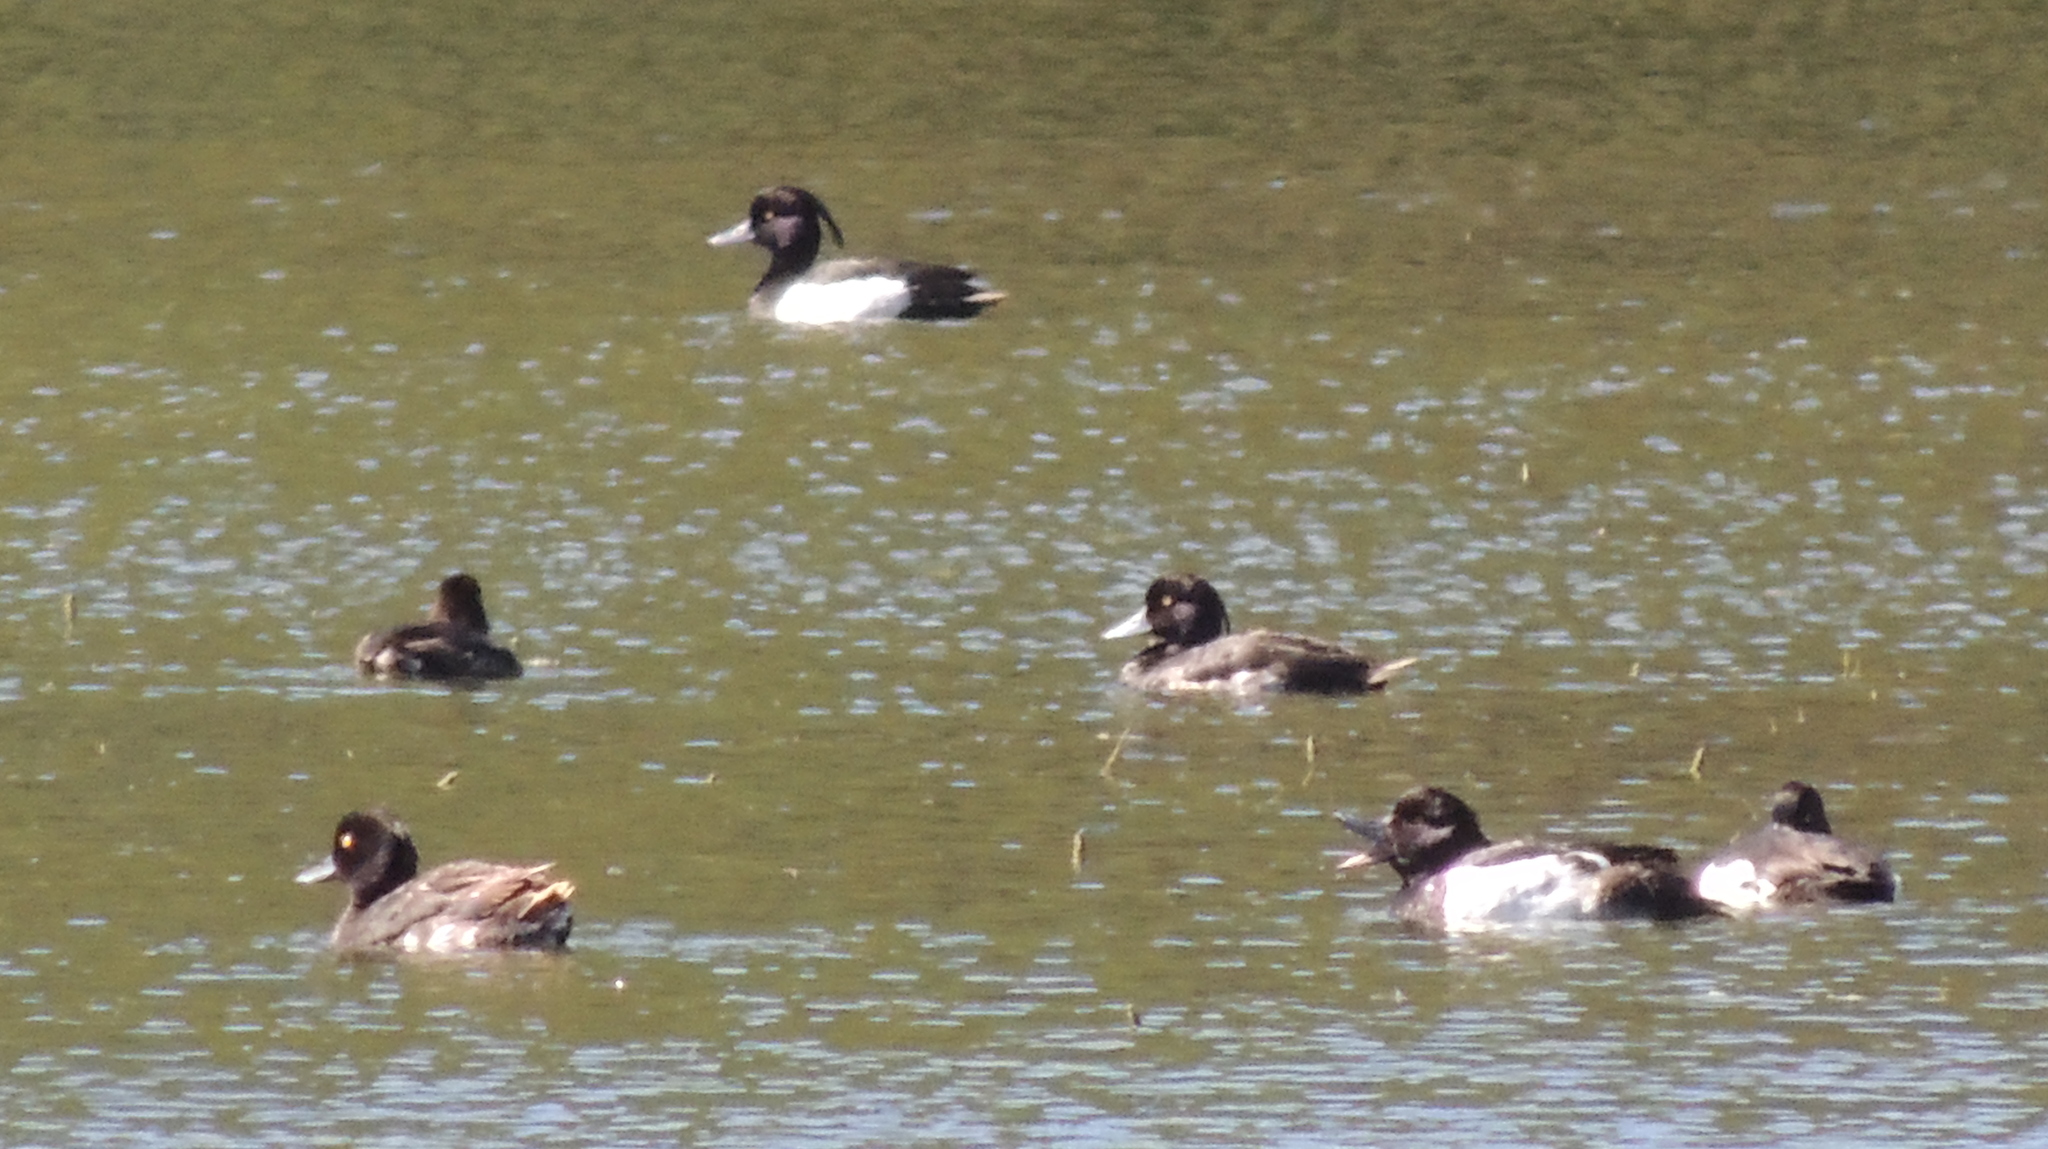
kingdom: Animalia
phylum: Chordata
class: Aves
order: Anseriformes
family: Anatidae
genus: Aythya
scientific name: Aythya fuligula
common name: Tufted duck
